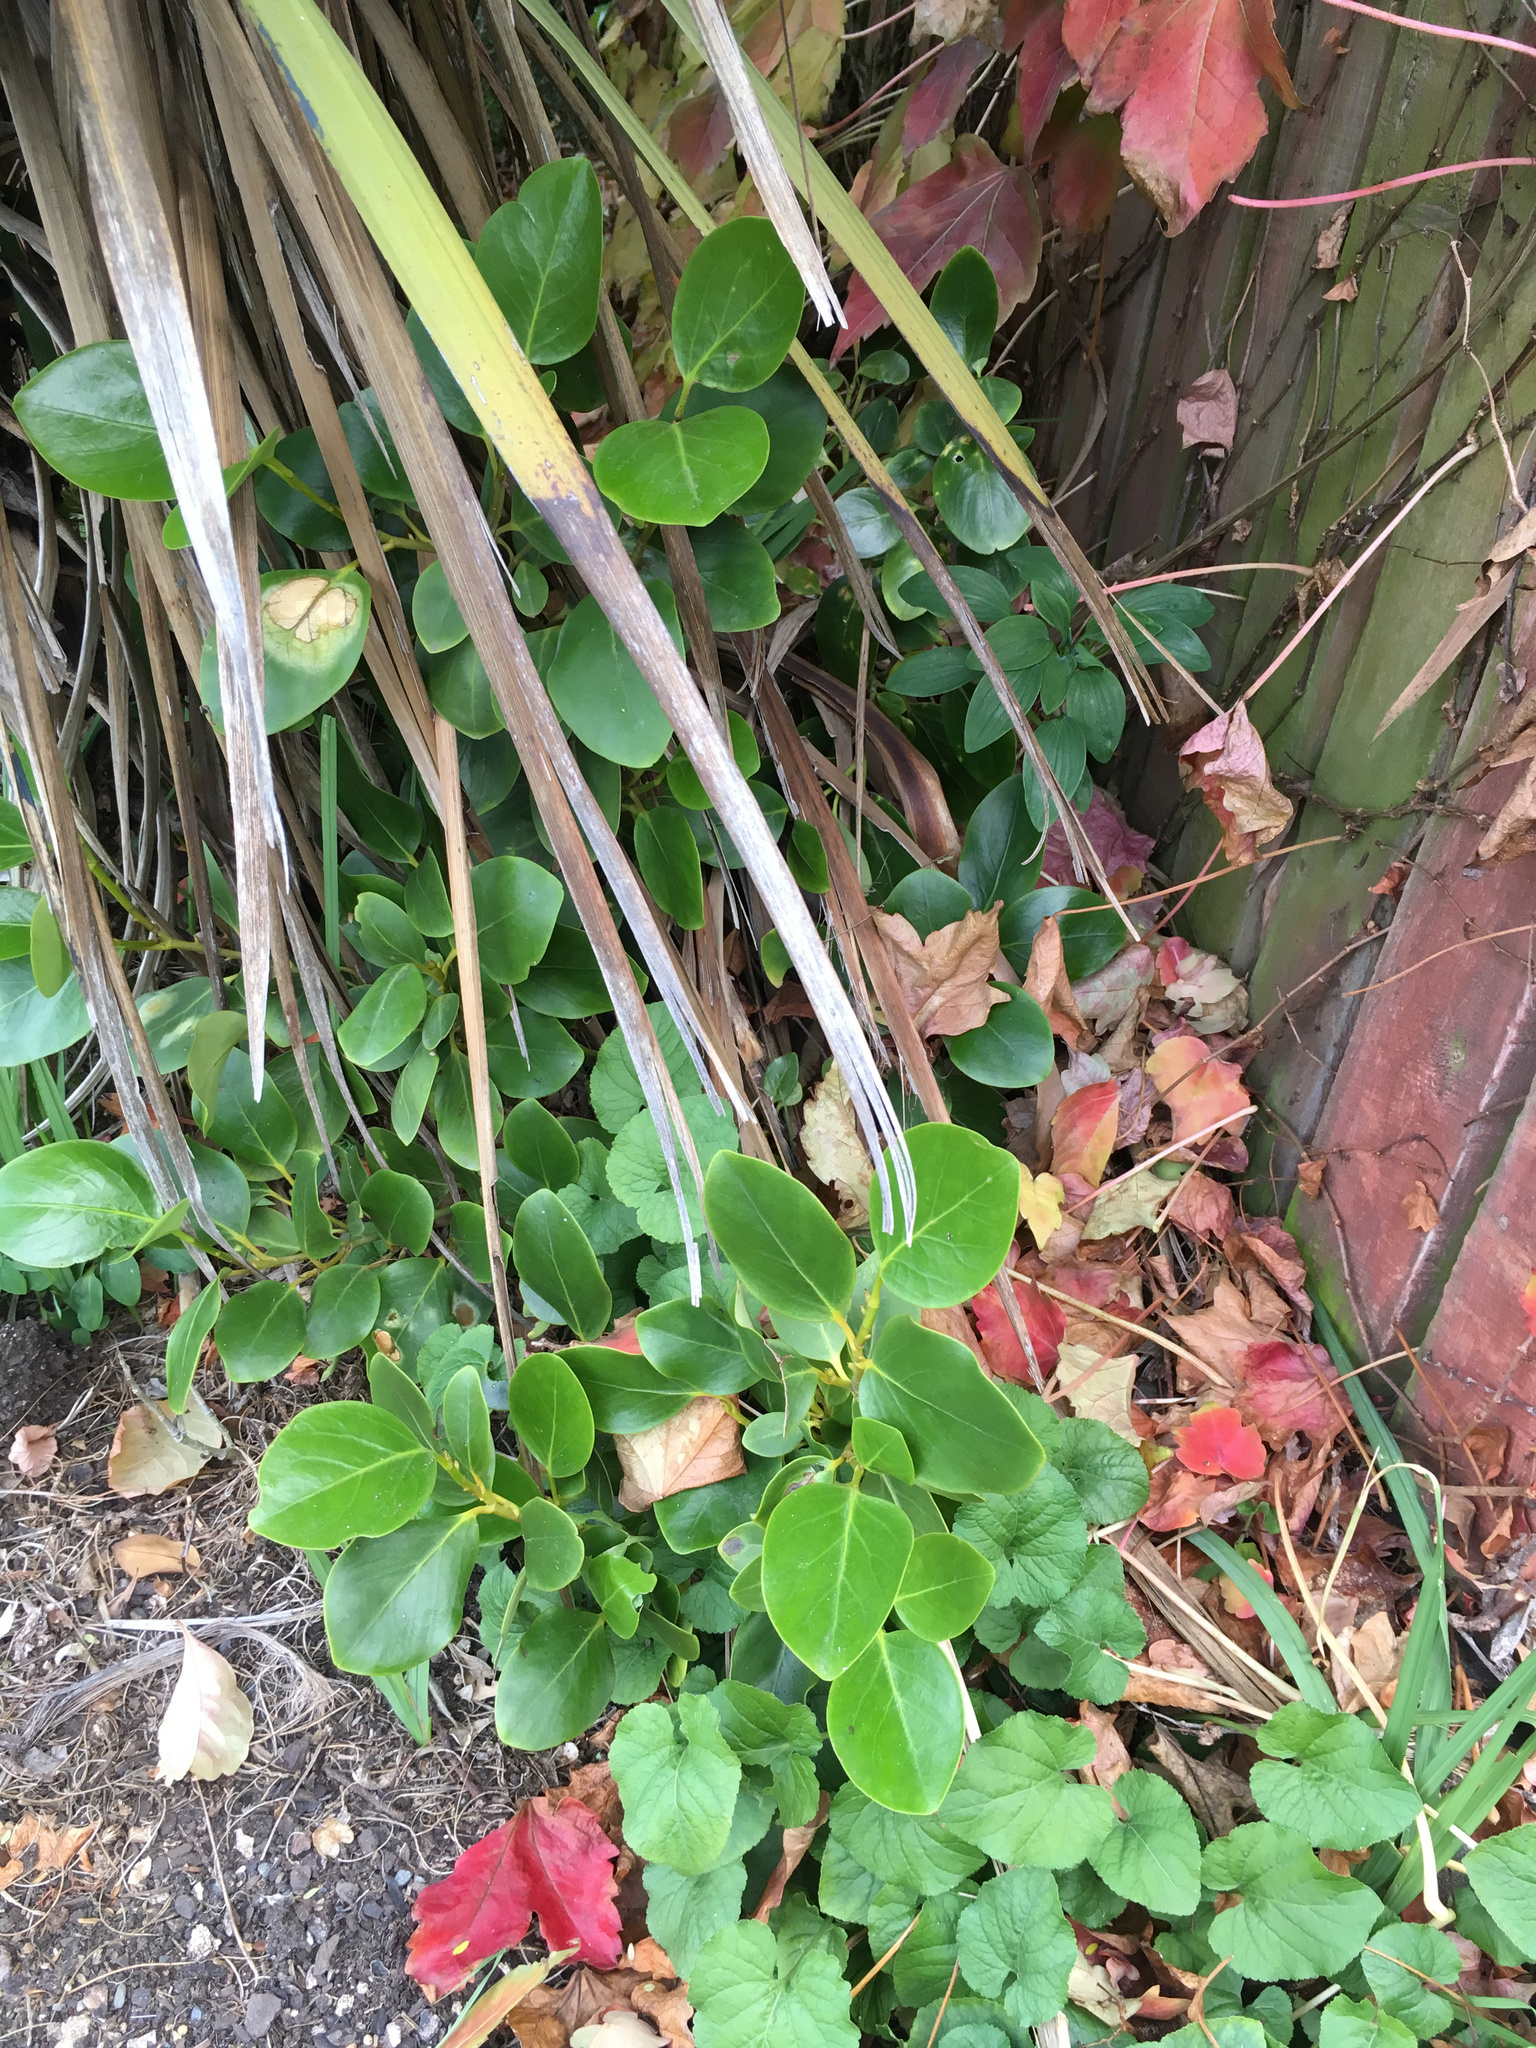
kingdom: Plantae
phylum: Tracheophyta
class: Magnoliopsida
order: Apiales
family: Griseliniaceae
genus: Griselinia
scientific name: Griselinia littoralis
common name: New zealand broadleaf
